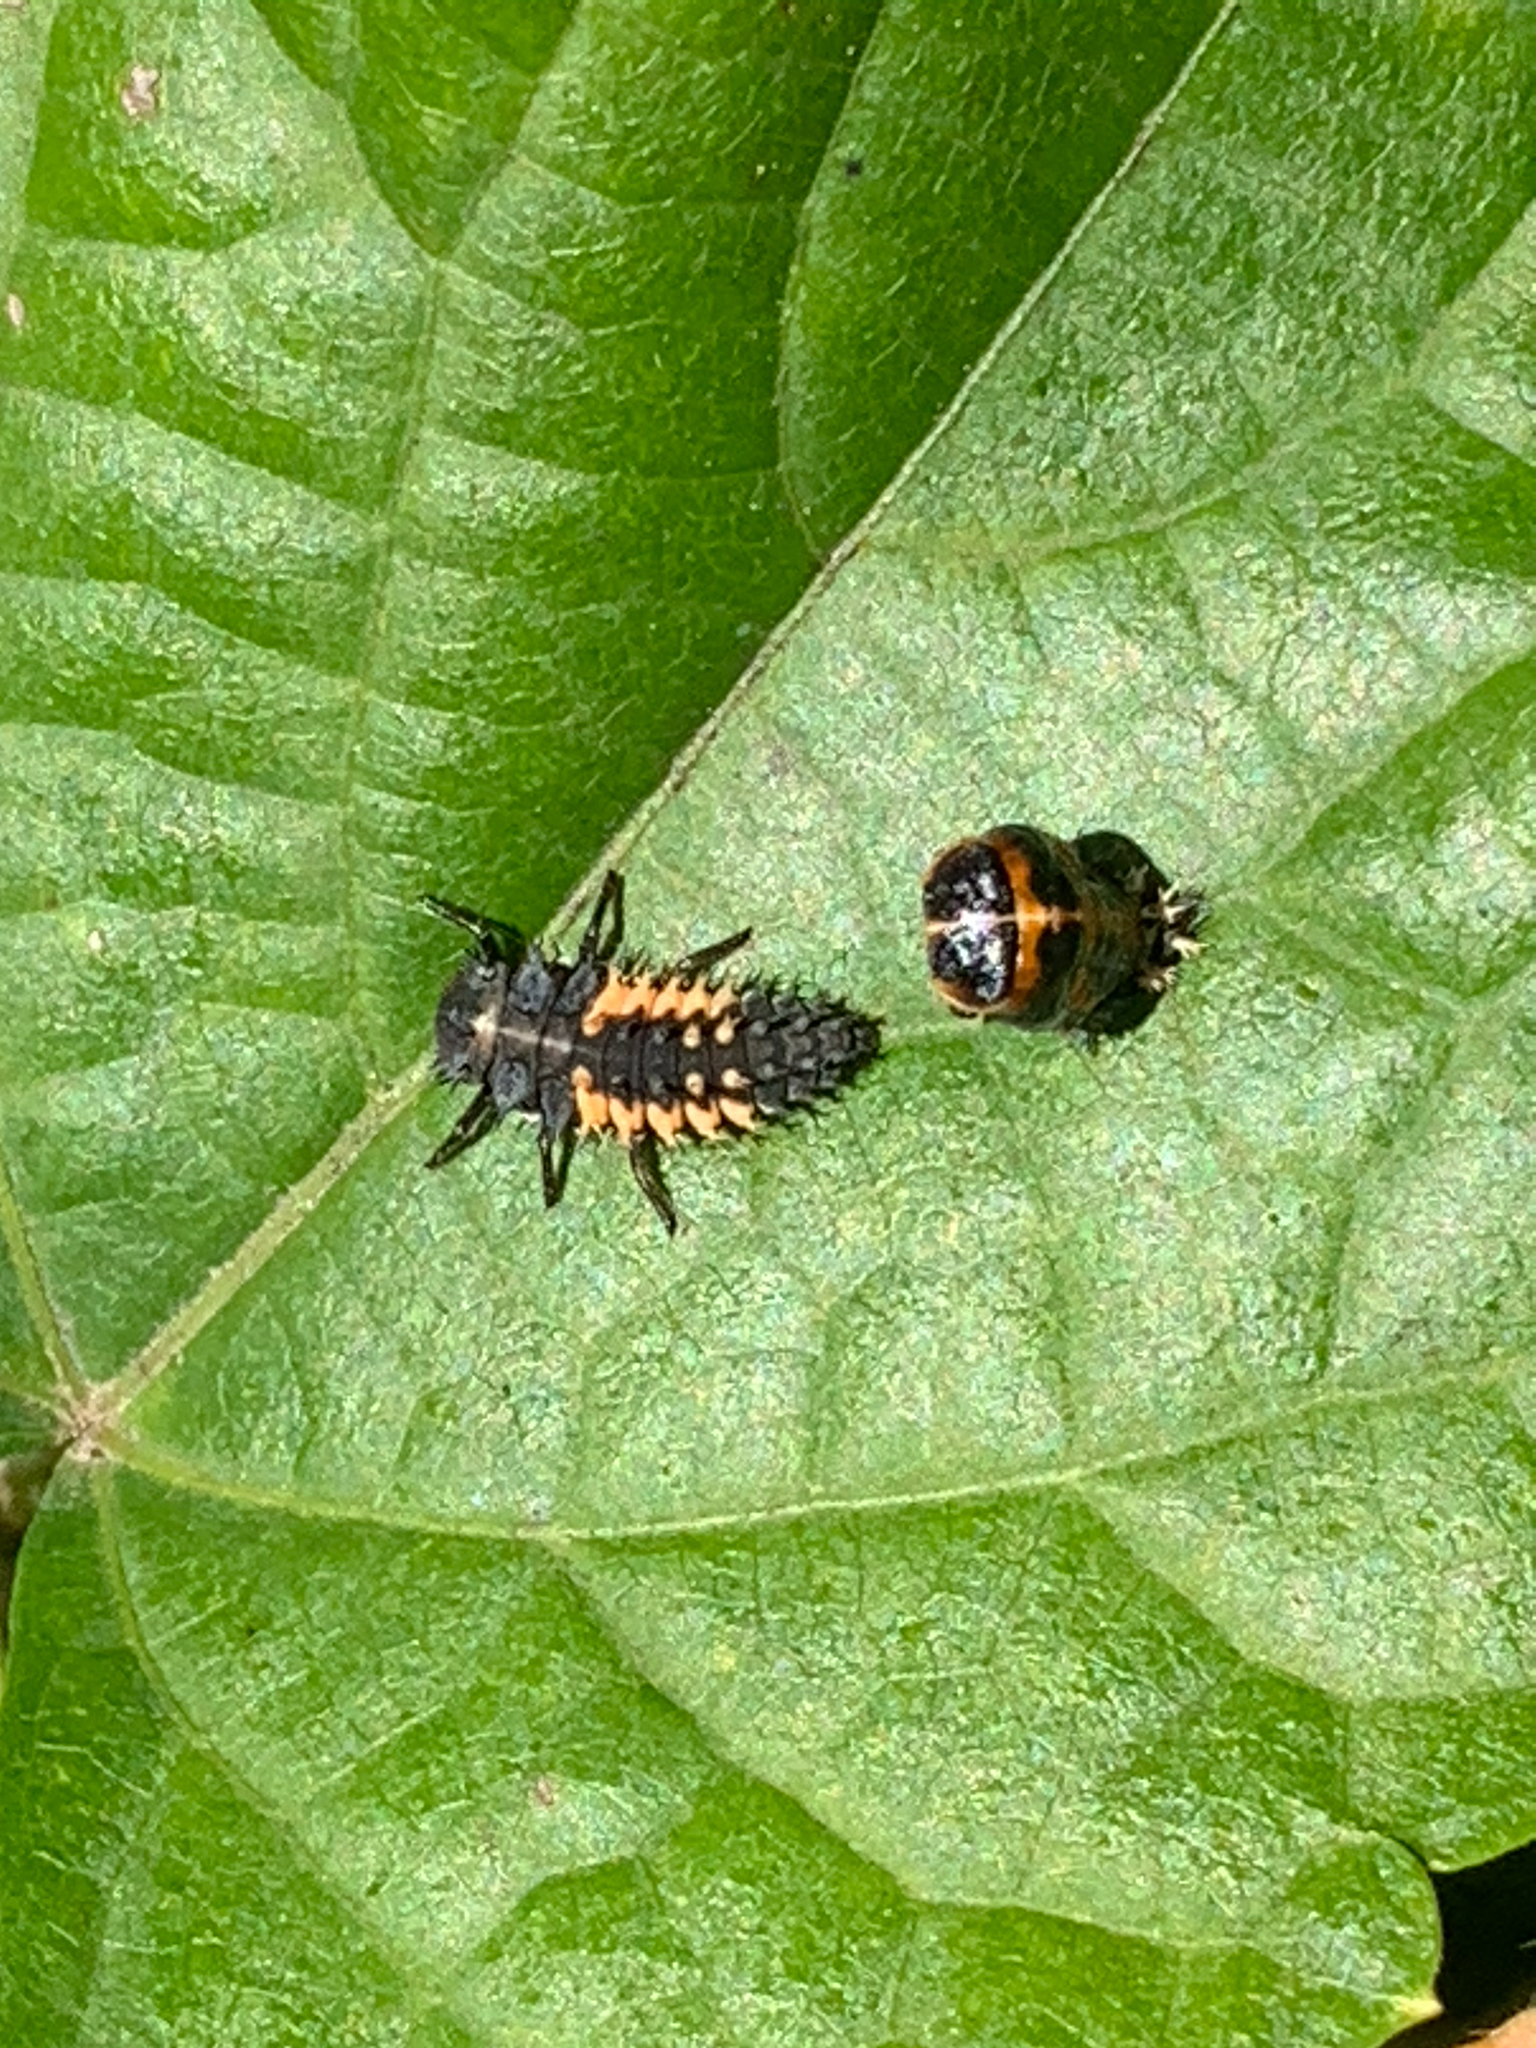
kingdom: Animalia
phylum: Arthropoda
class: Insecta
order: Coleoptera
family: Coccinellidae
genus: Harmonia
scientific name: Harmonia axyridis
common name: Harlequin ladybird
